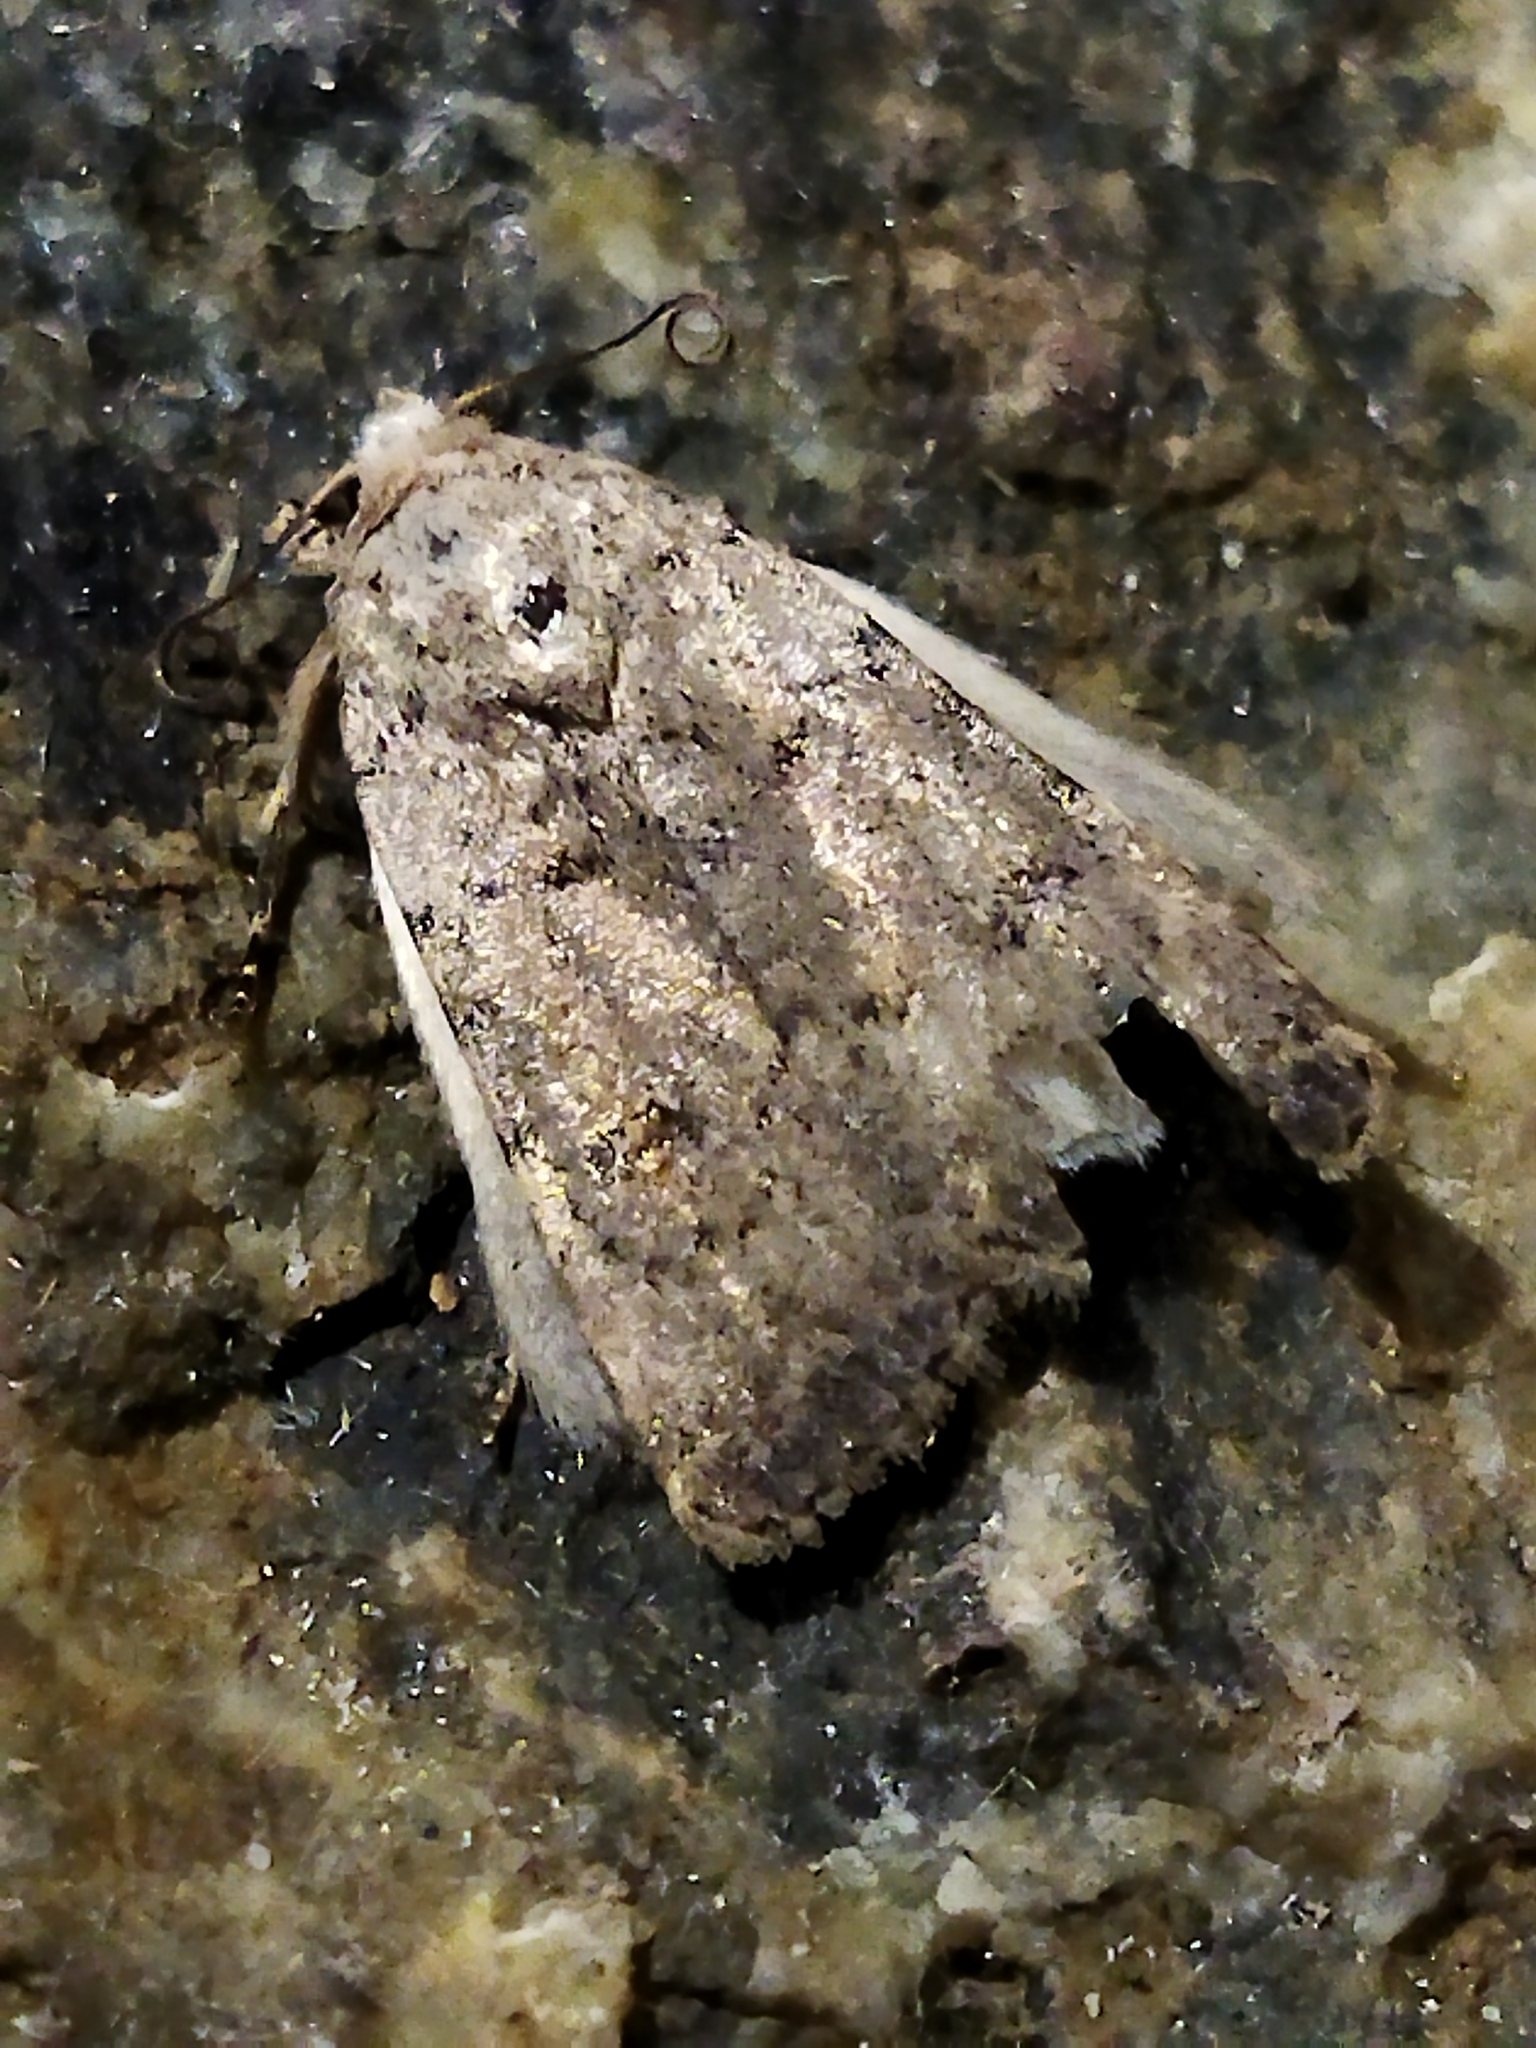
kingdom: Animalia
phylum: Arthropoda
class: Insecta
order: Lepidoptera
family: Noctuidae
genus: Caradrina
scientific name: Caradrina
